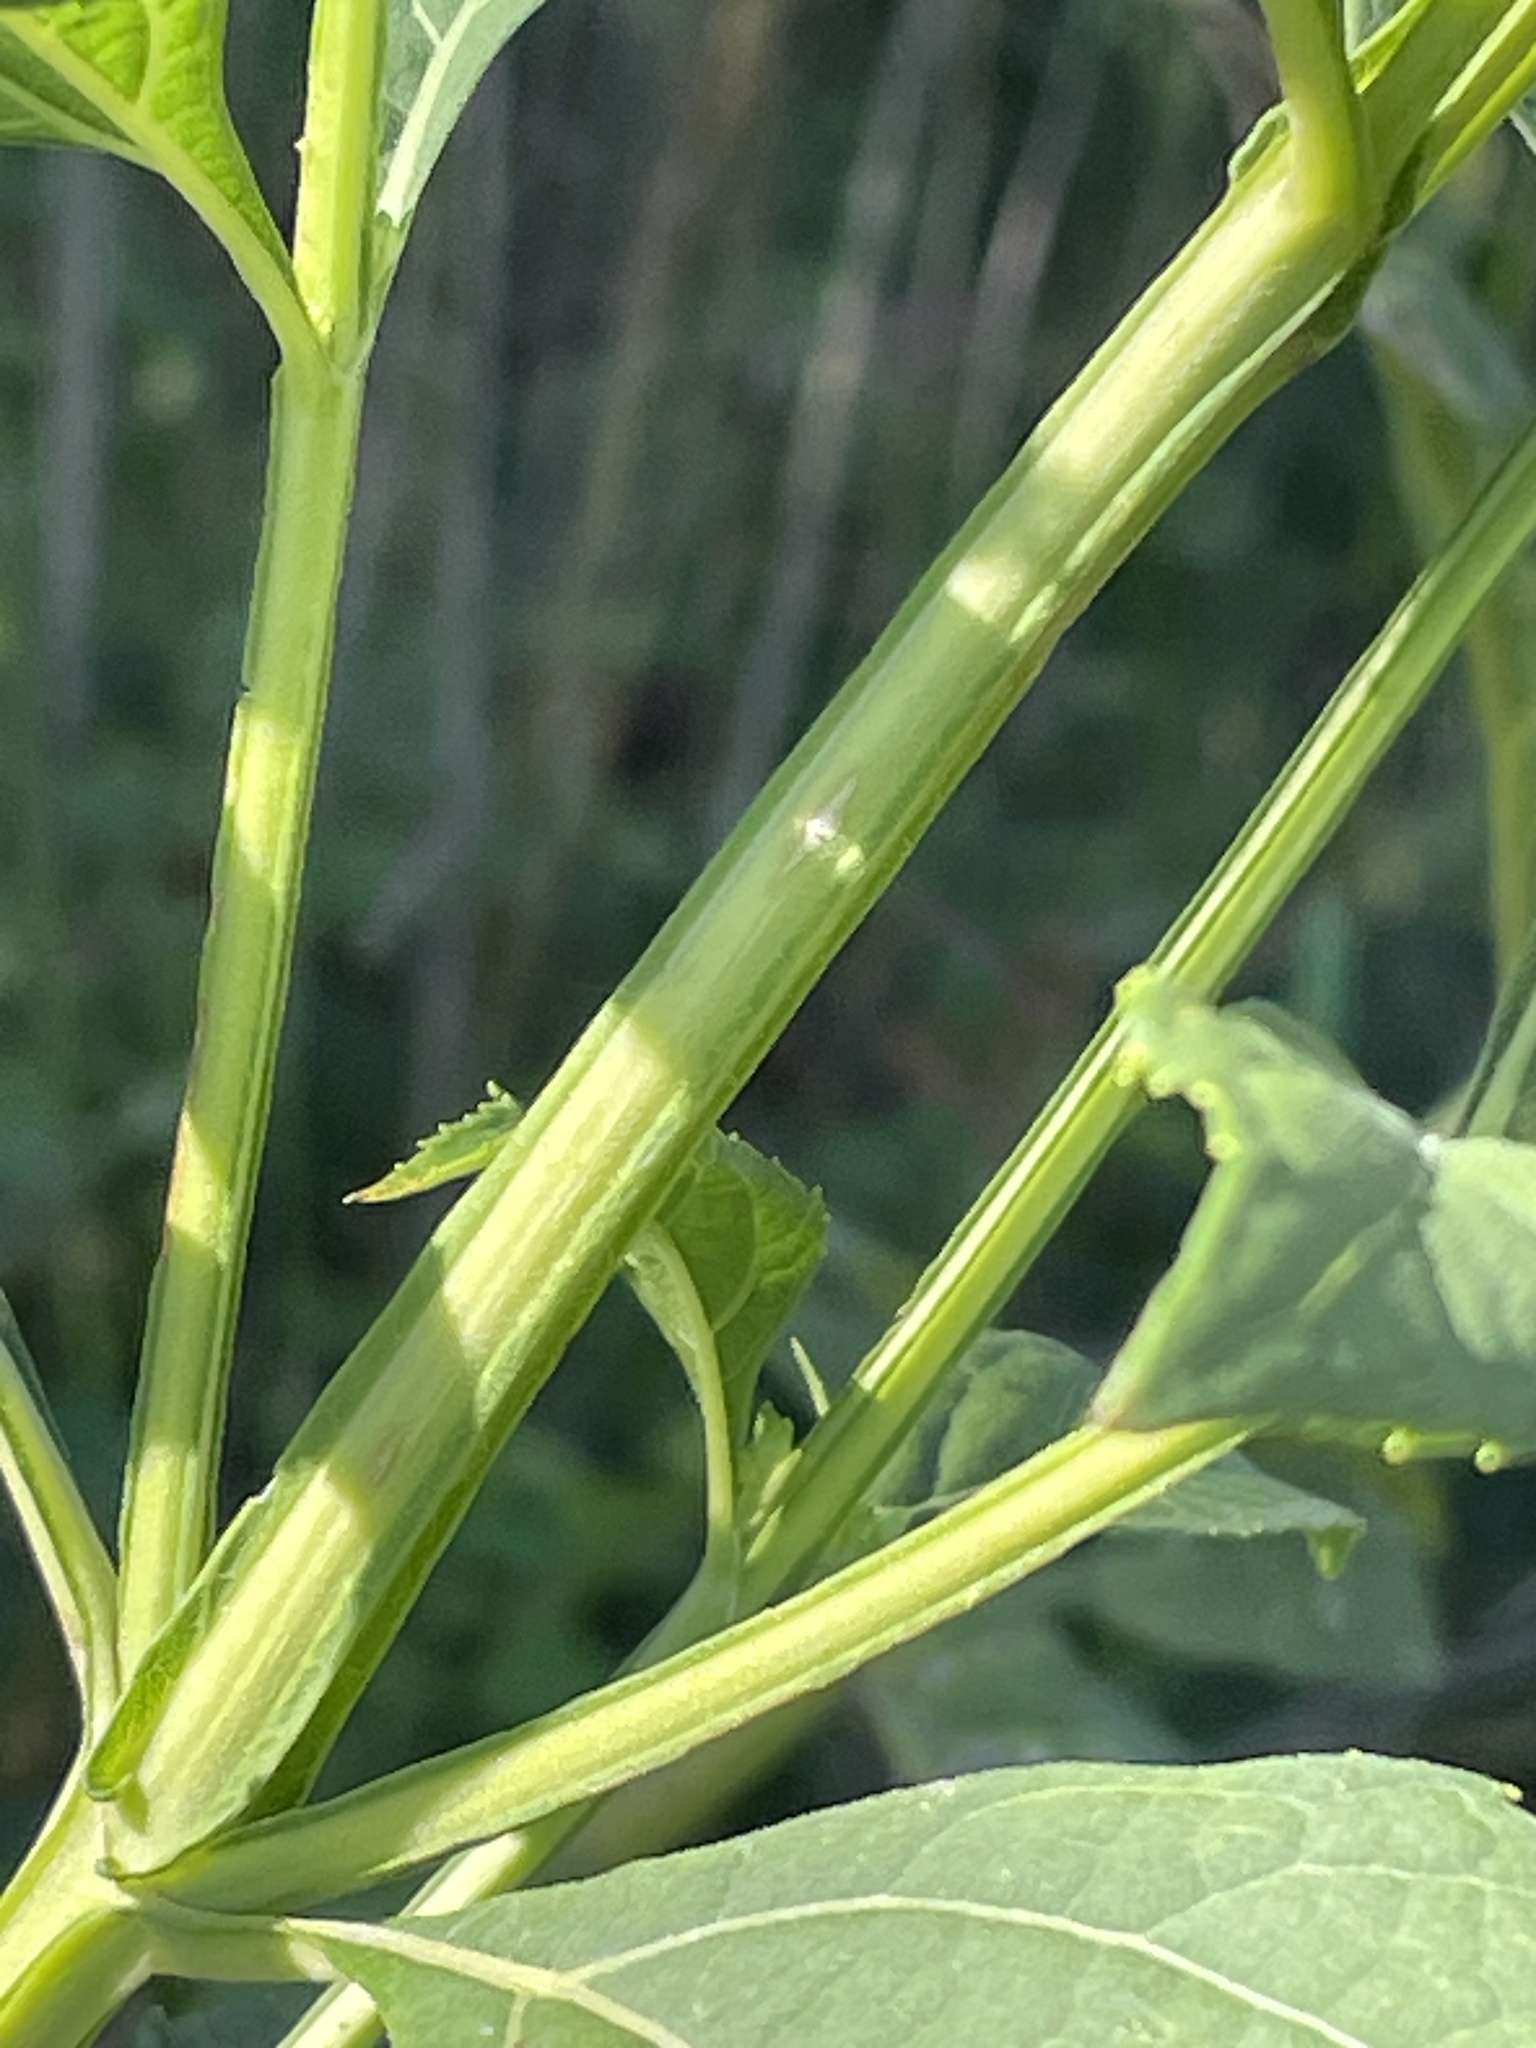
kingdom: Plantae
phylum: Tracheophyta
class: Magnoliopsida
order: Asterales
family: Asteraceae
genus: Verbesina
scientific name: Verbesina occidentalis
